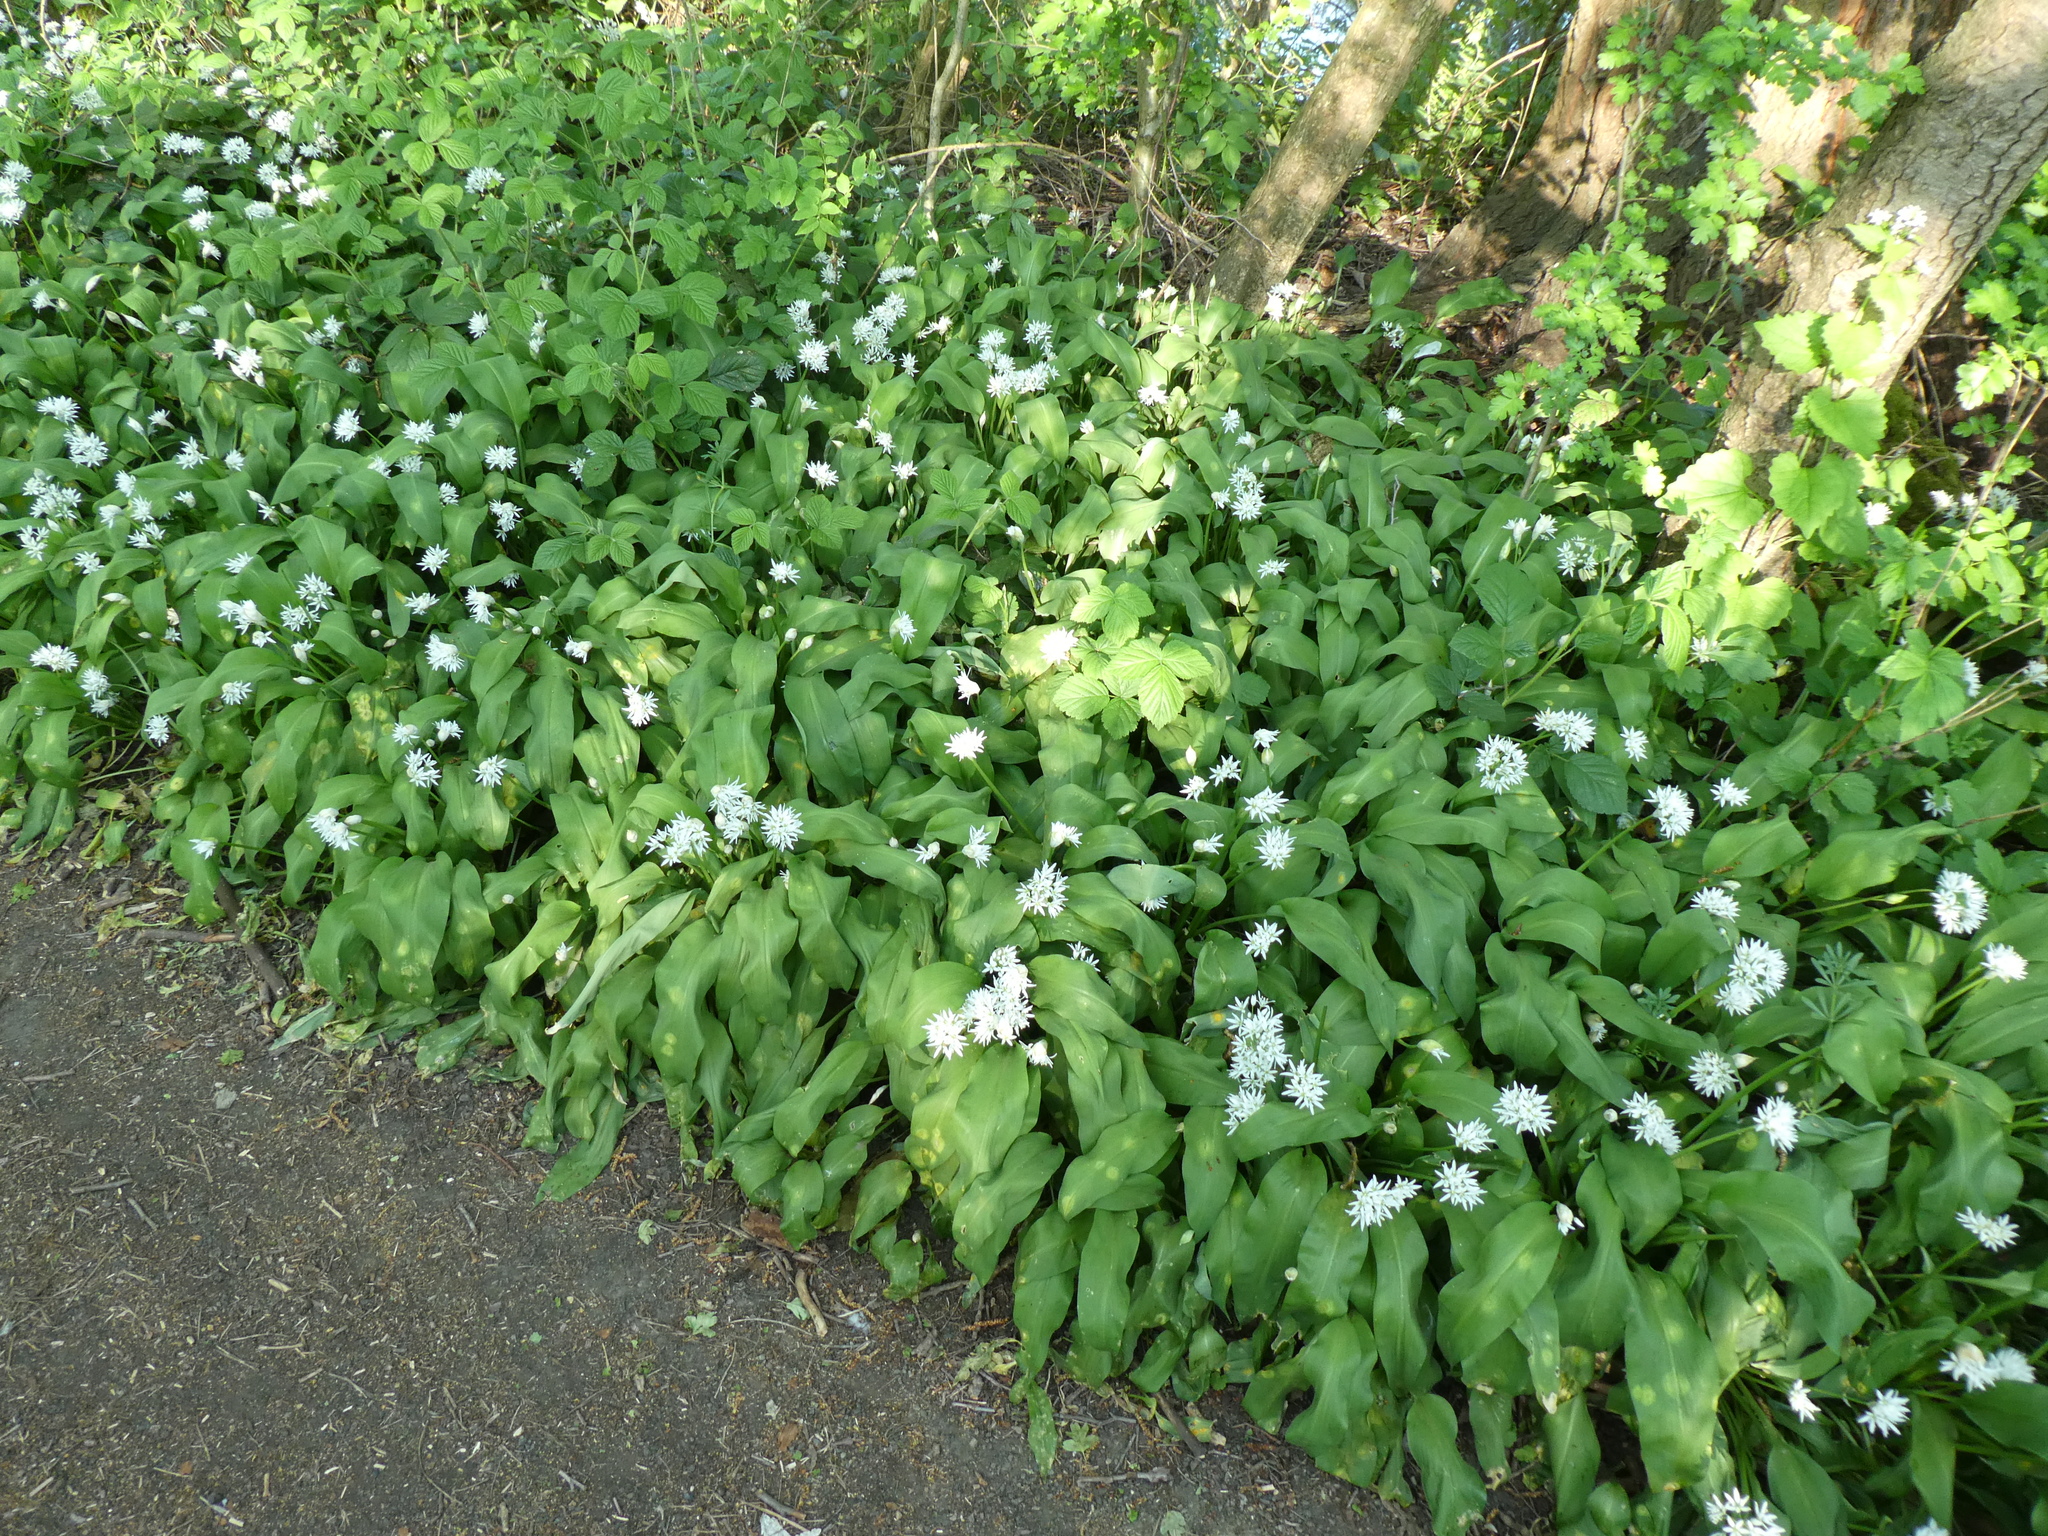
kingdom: Plantae
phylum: Tracheophyta
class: Liliopsida
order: Asparagales
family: Amaryllidaceae
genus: Allium
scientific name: Allium ursinum
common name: Ramsons
